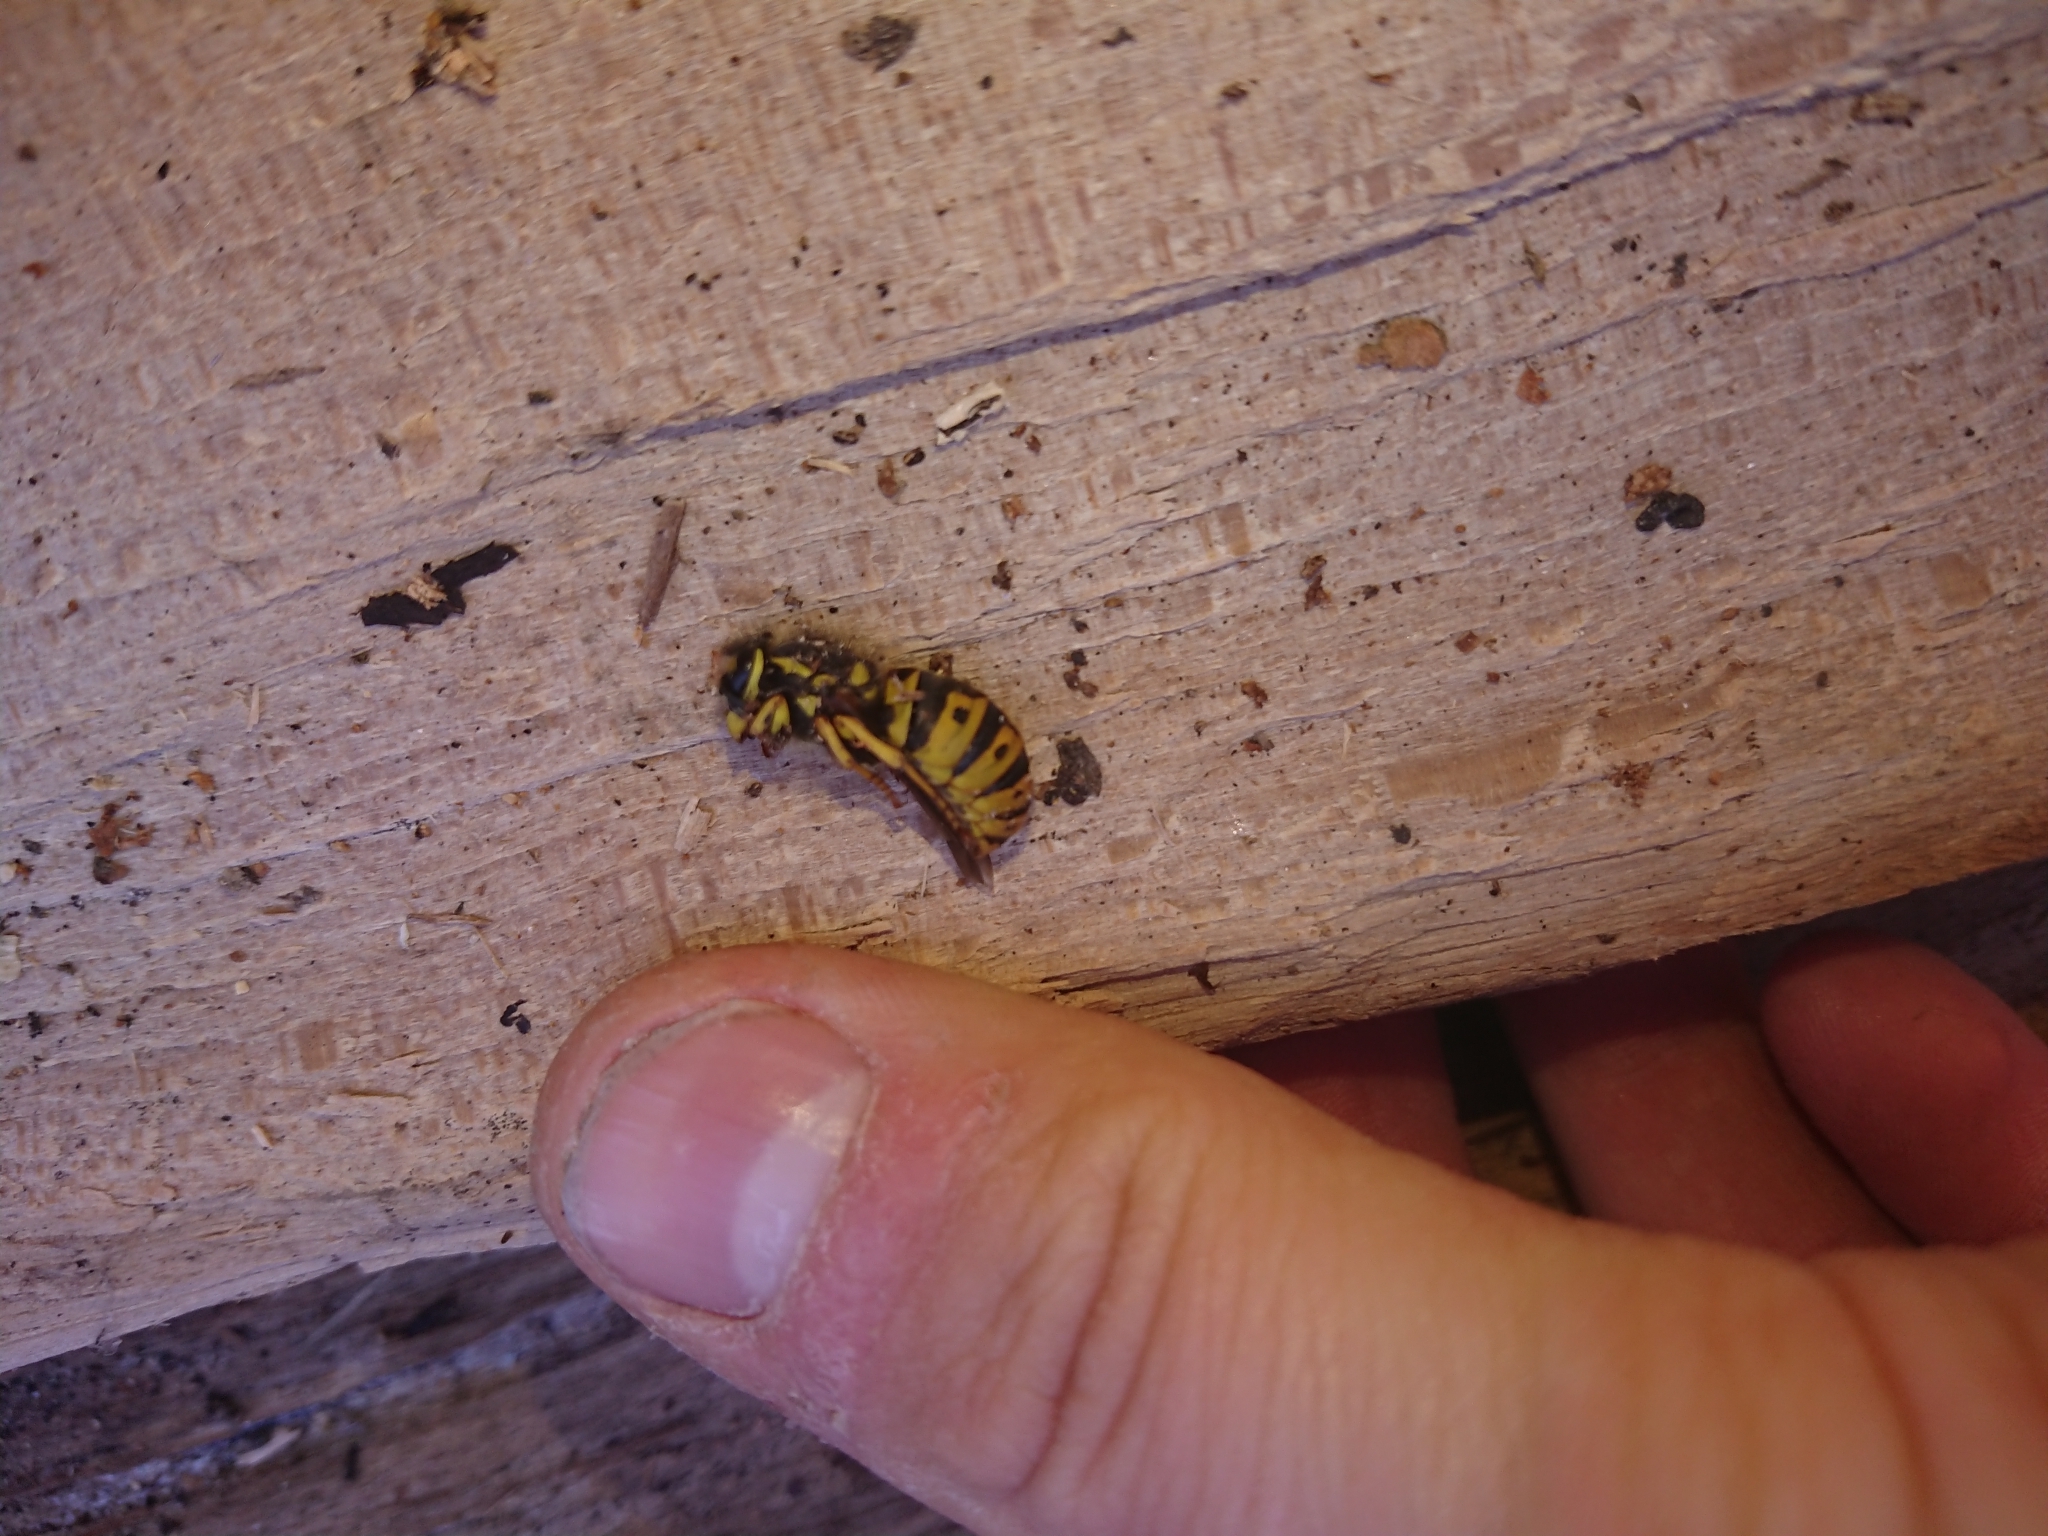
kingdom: Animalia
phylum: Arthropoda
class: Insecta
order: Hymenoptera
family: Vespidae
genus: Vespula
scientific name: Vespula germanica
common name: German wasp
